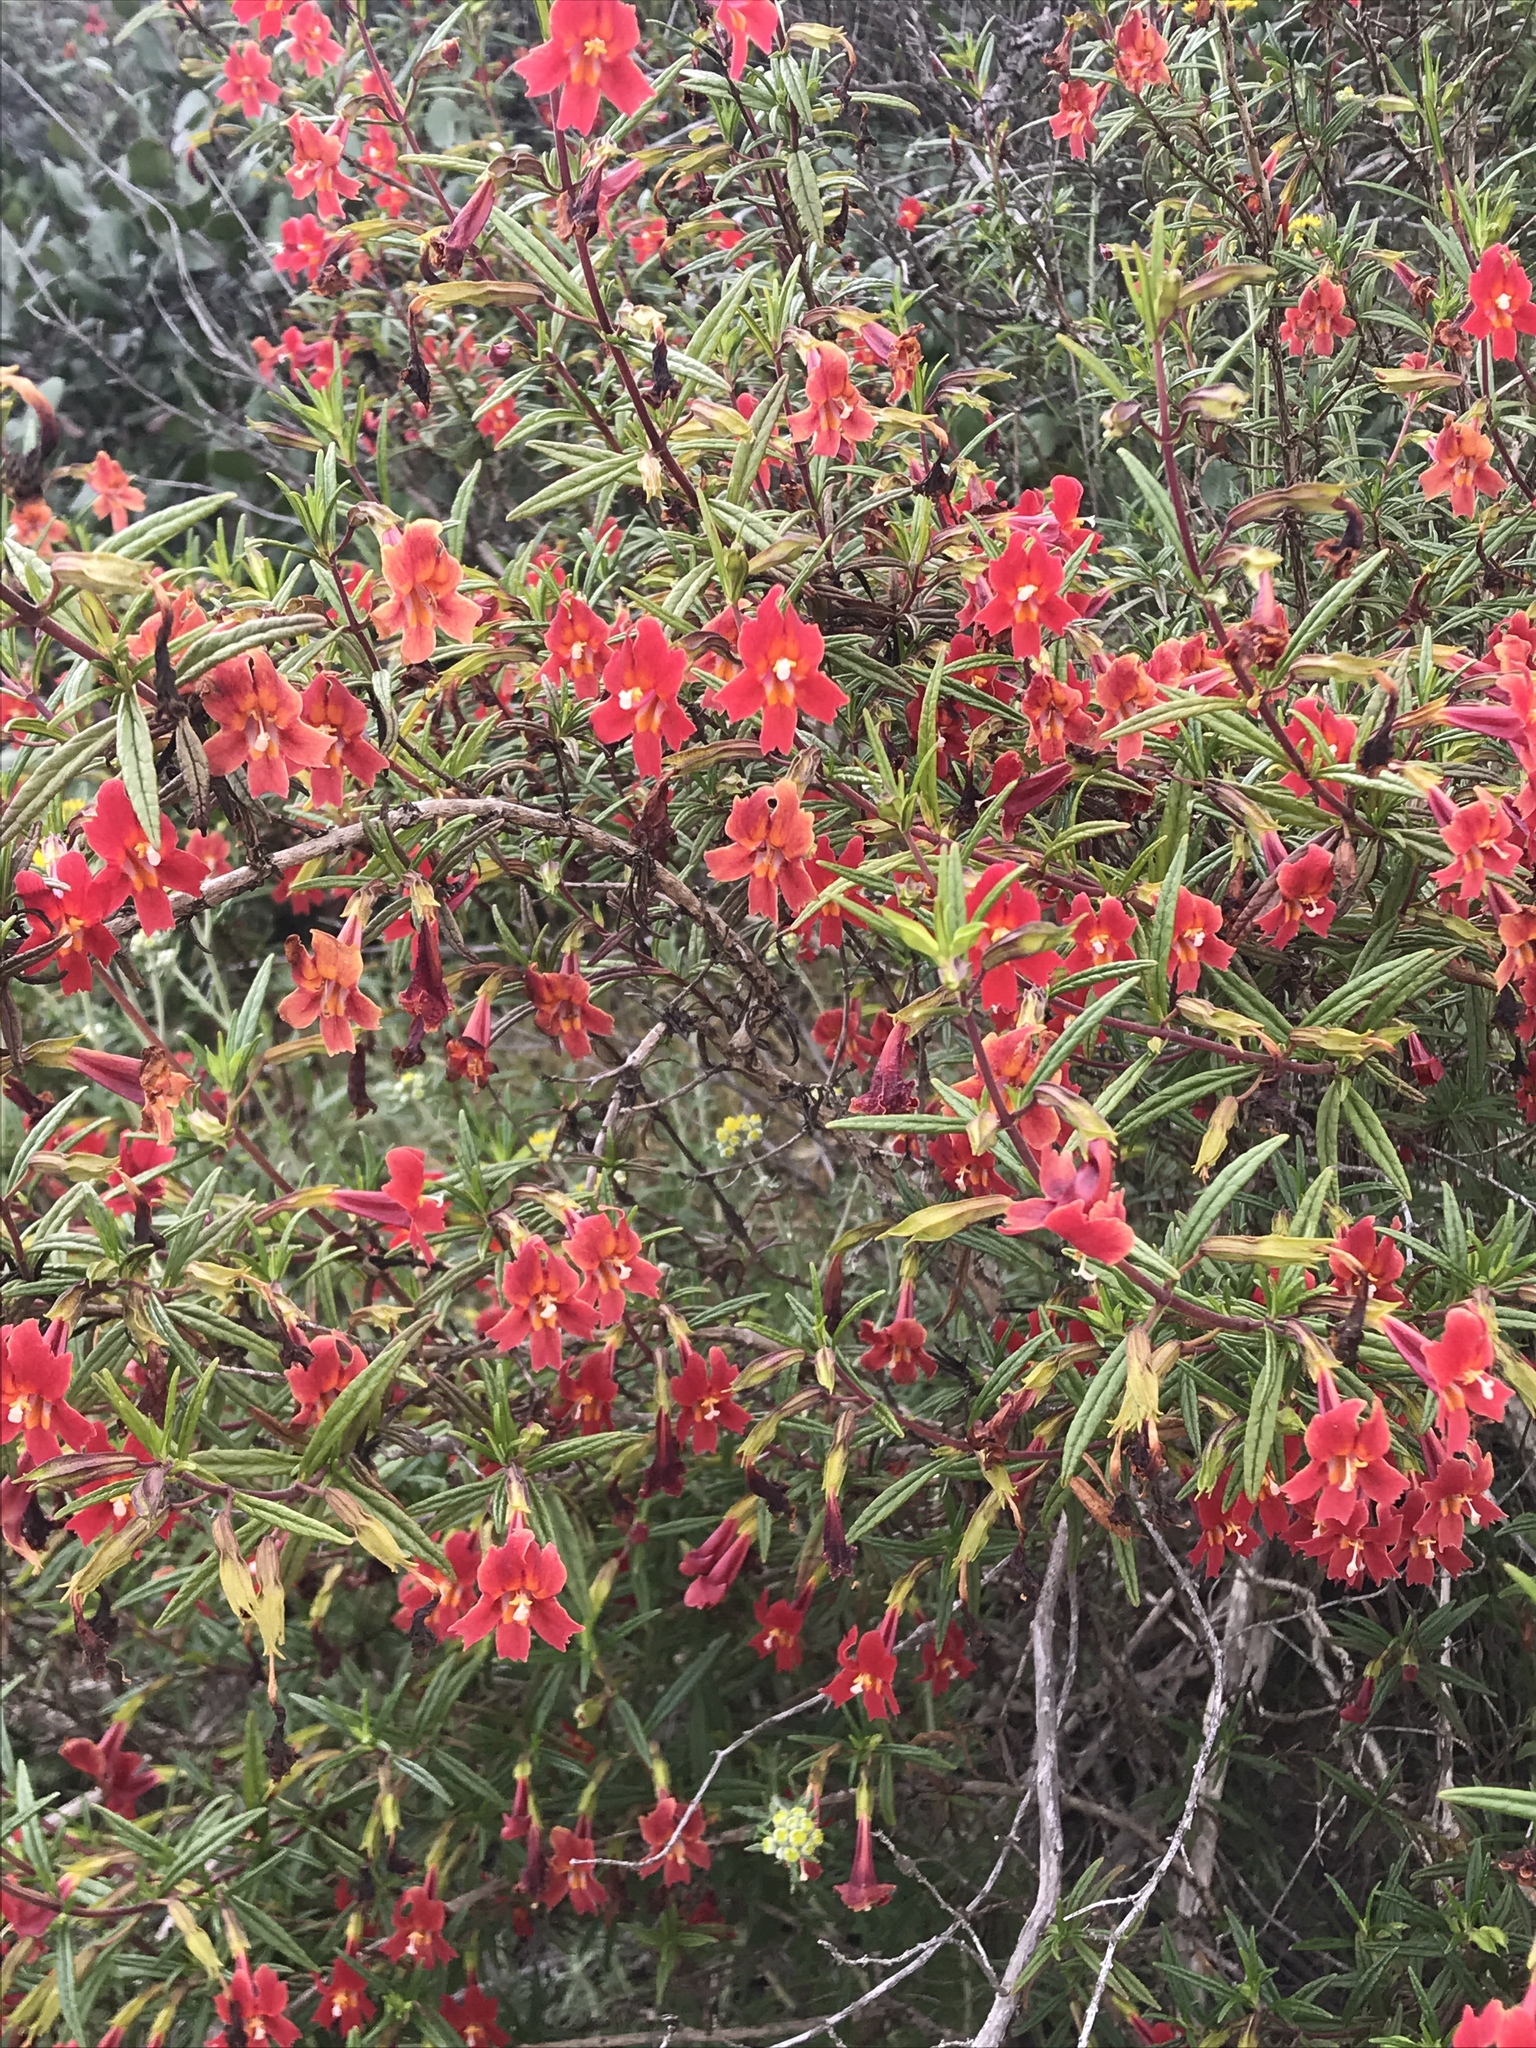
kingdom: Plantae
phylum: Tracheophyta
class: Magnoliopsida
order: Lamiales
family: Phrymaceae
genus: Diplacus
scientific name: Diplacus puniceus
